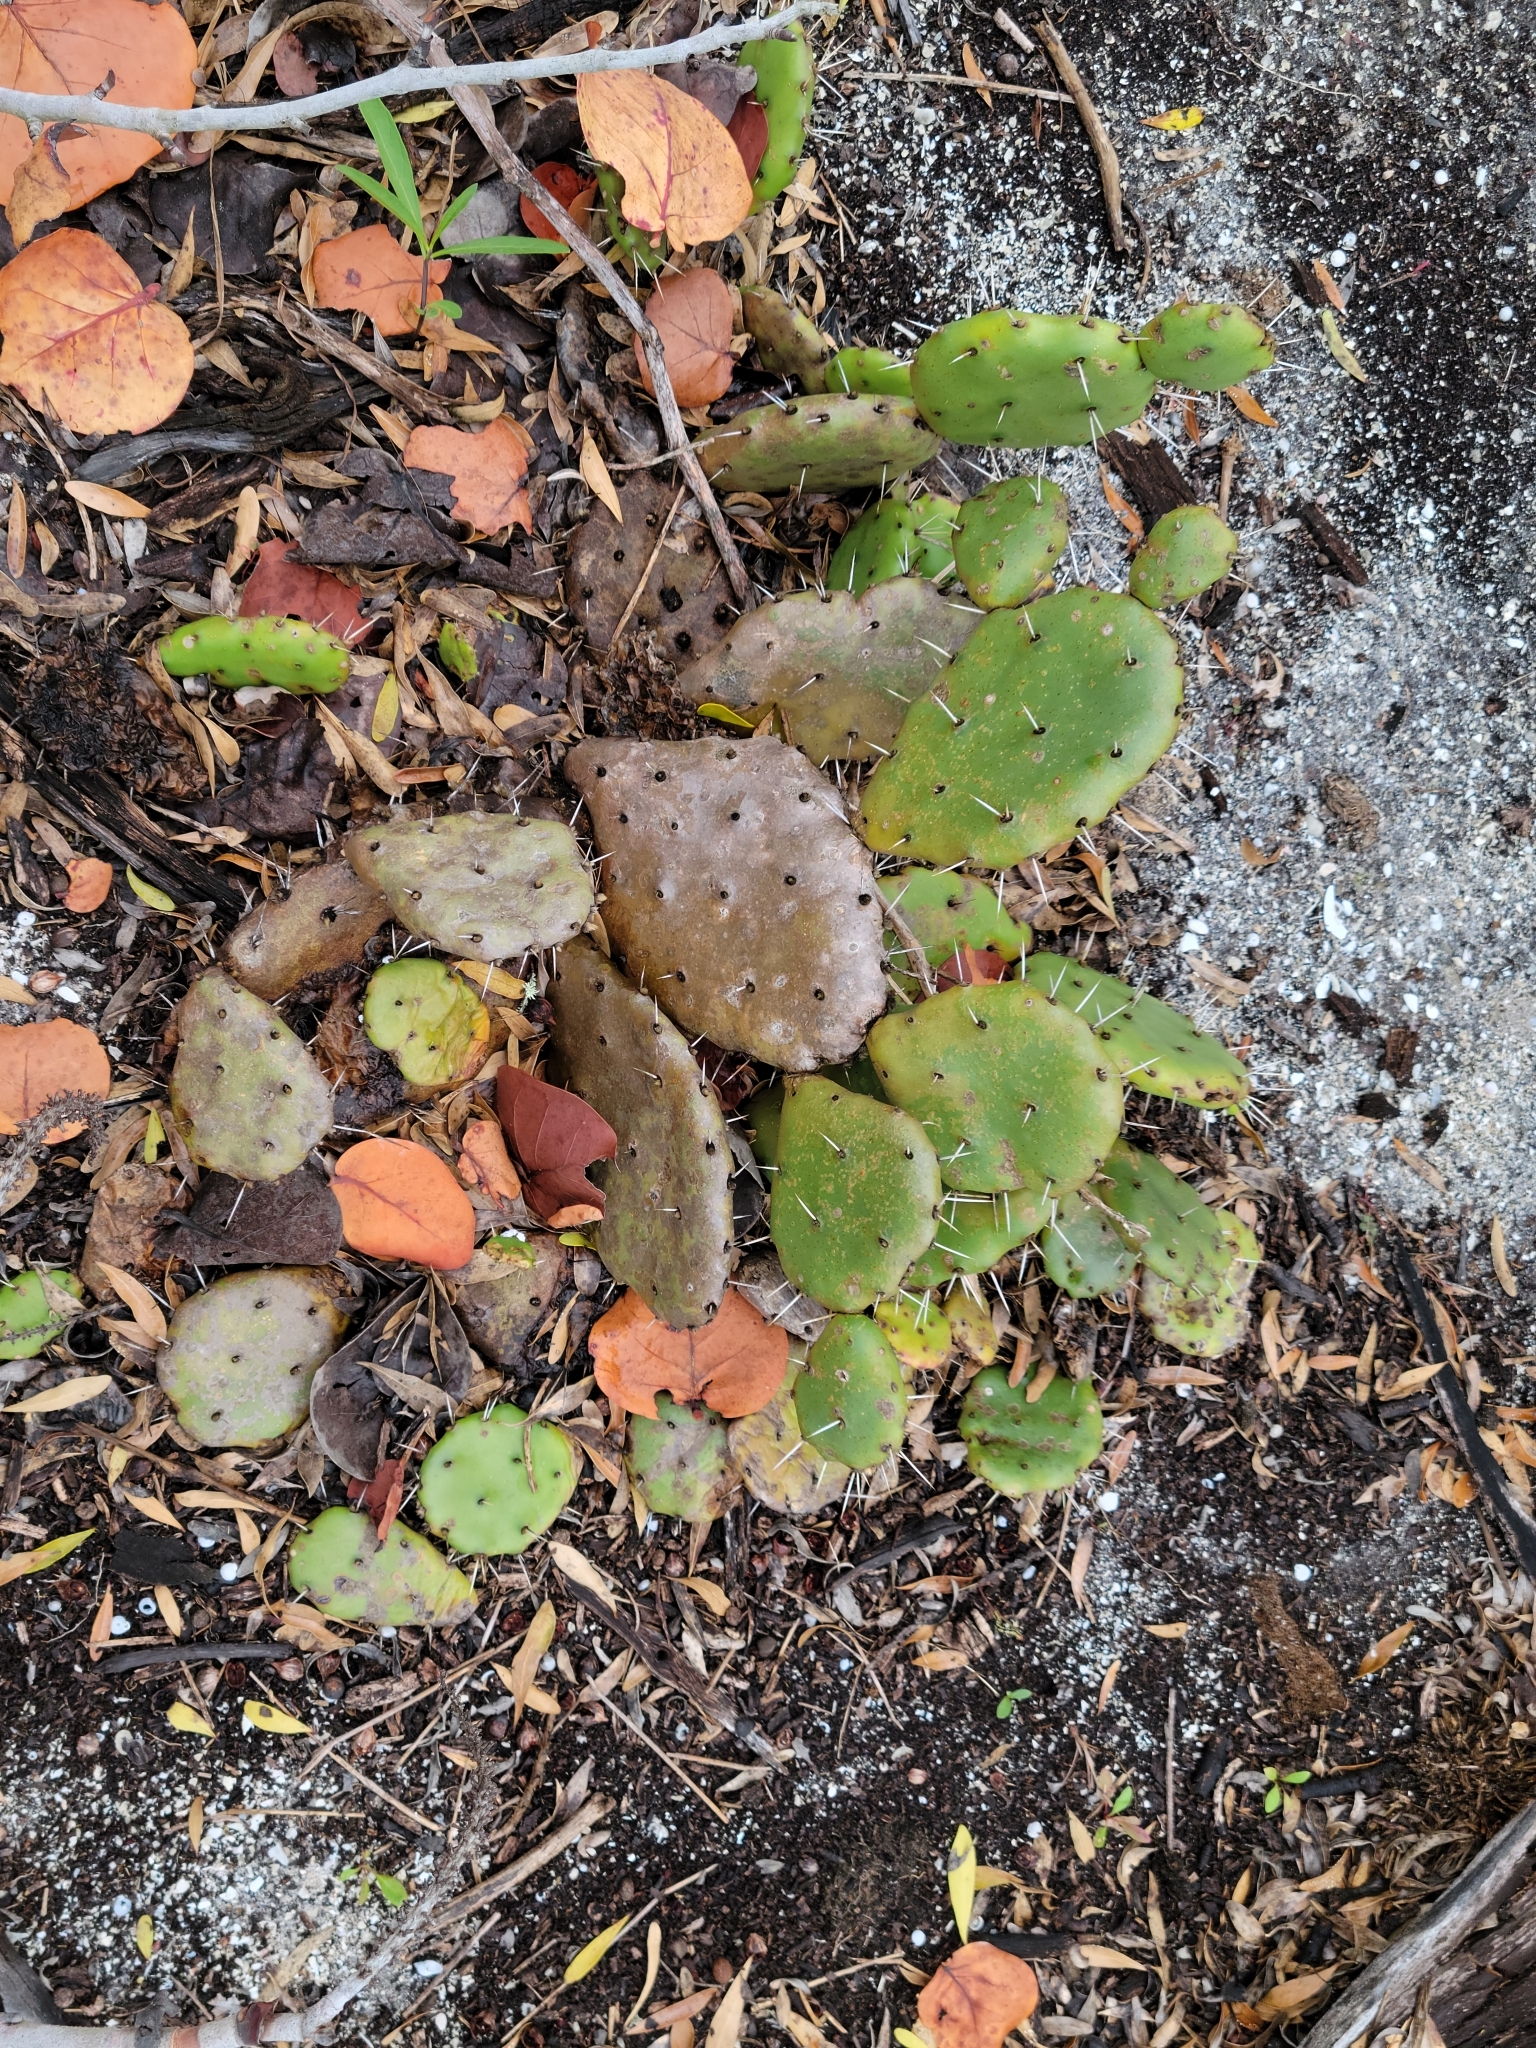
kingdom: Plantae
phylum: Tracheophyta
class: Magnoliopsida
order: Caryophyllales
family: Cactaceae
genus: Opuntia
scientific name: Opuntia mesacantha
